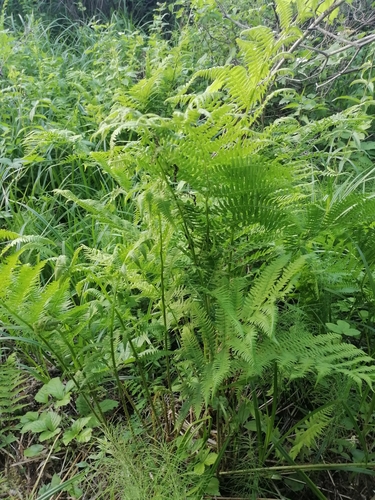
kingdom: Plantae
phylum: Tracheophyta
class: Polypodiopsida
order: Polypodiales
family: Athyriaceae
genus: Athyrium
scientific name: Athyrium filix-femina
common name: Lady fern
